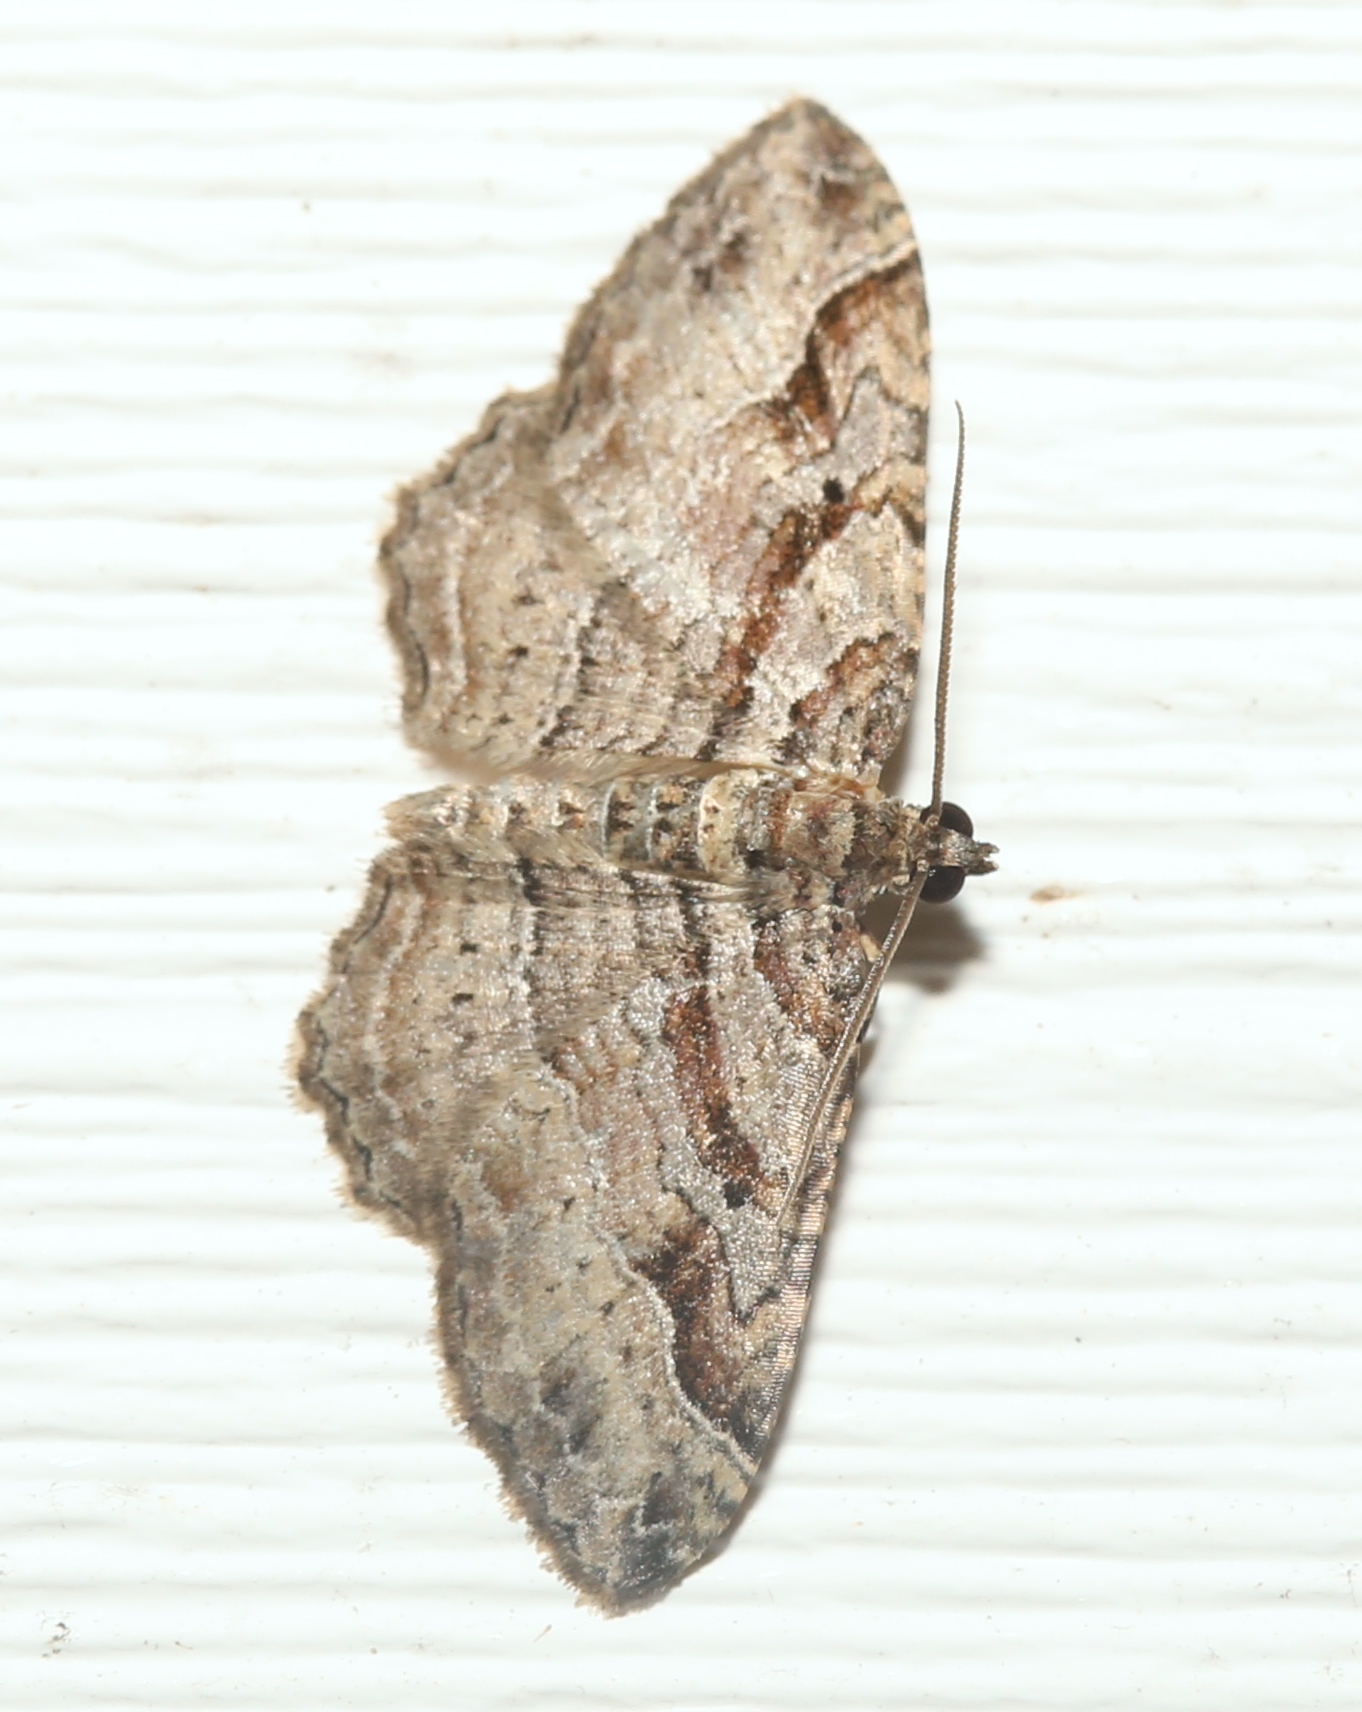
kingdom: Animalia
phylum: Arthropoda
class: Insecta
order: Lepidoptera
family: Geometridae
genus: Costaconvexa
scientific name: Costaconvexa centrostrigaria
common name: Bent-line carpet
